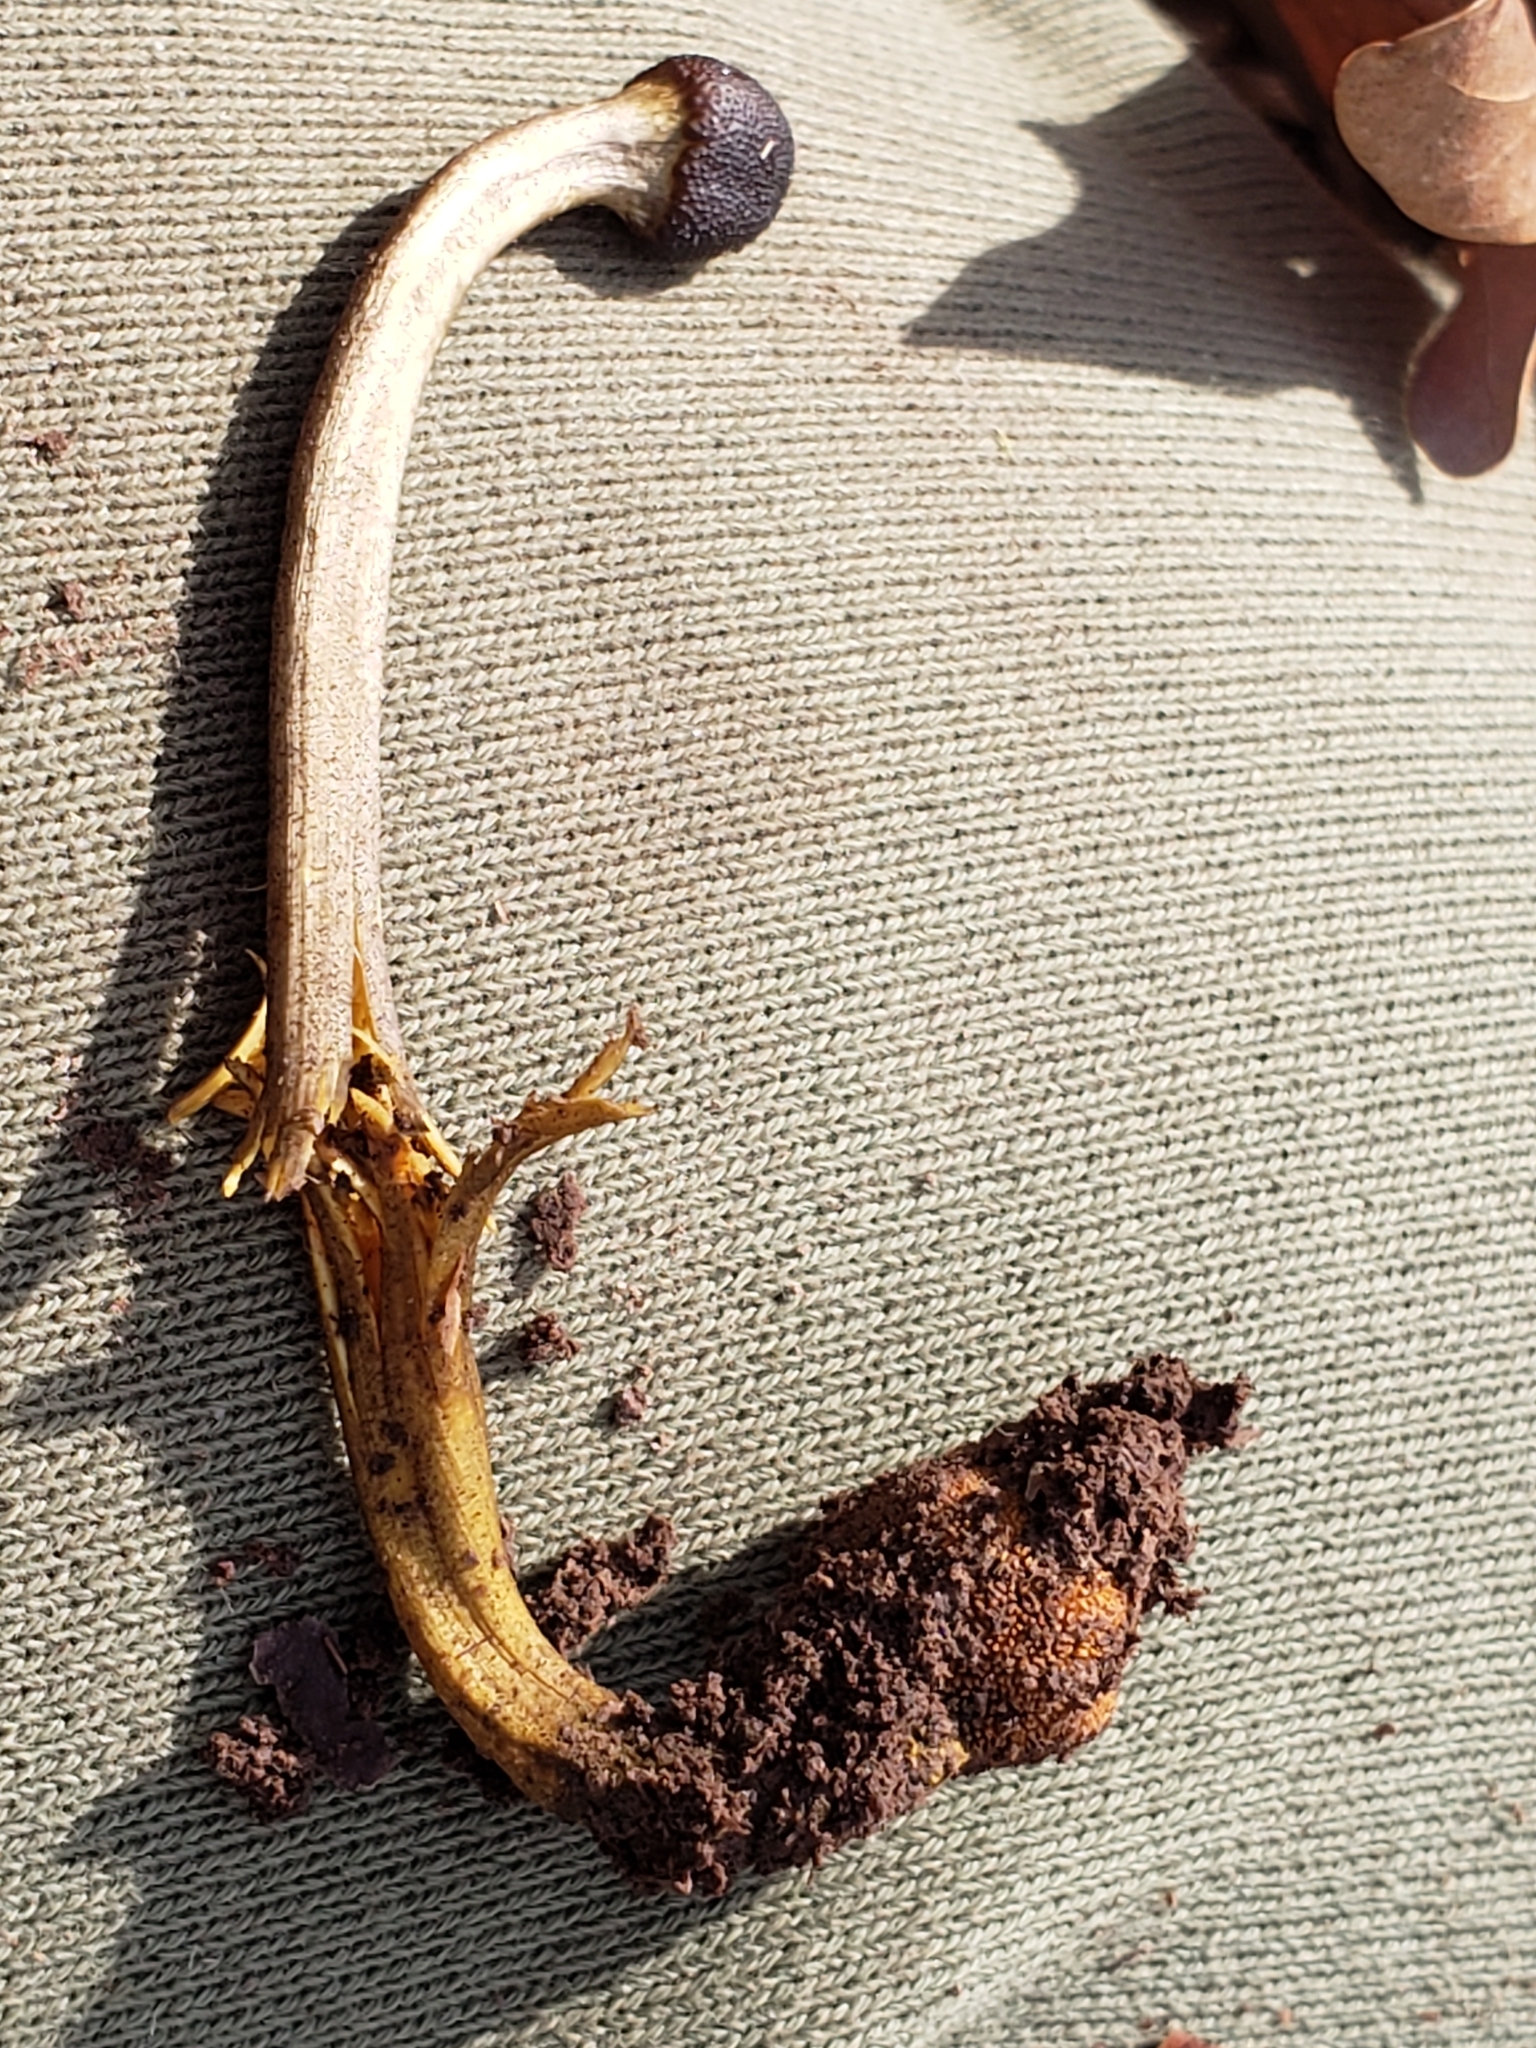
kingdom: Fungi
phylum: Ascomycota
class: Sordariomycetes
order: Hypocreales
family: Ophiocordycipitaceae
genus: Tolypocladium
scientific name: Tolypocladium longisegmentatum
